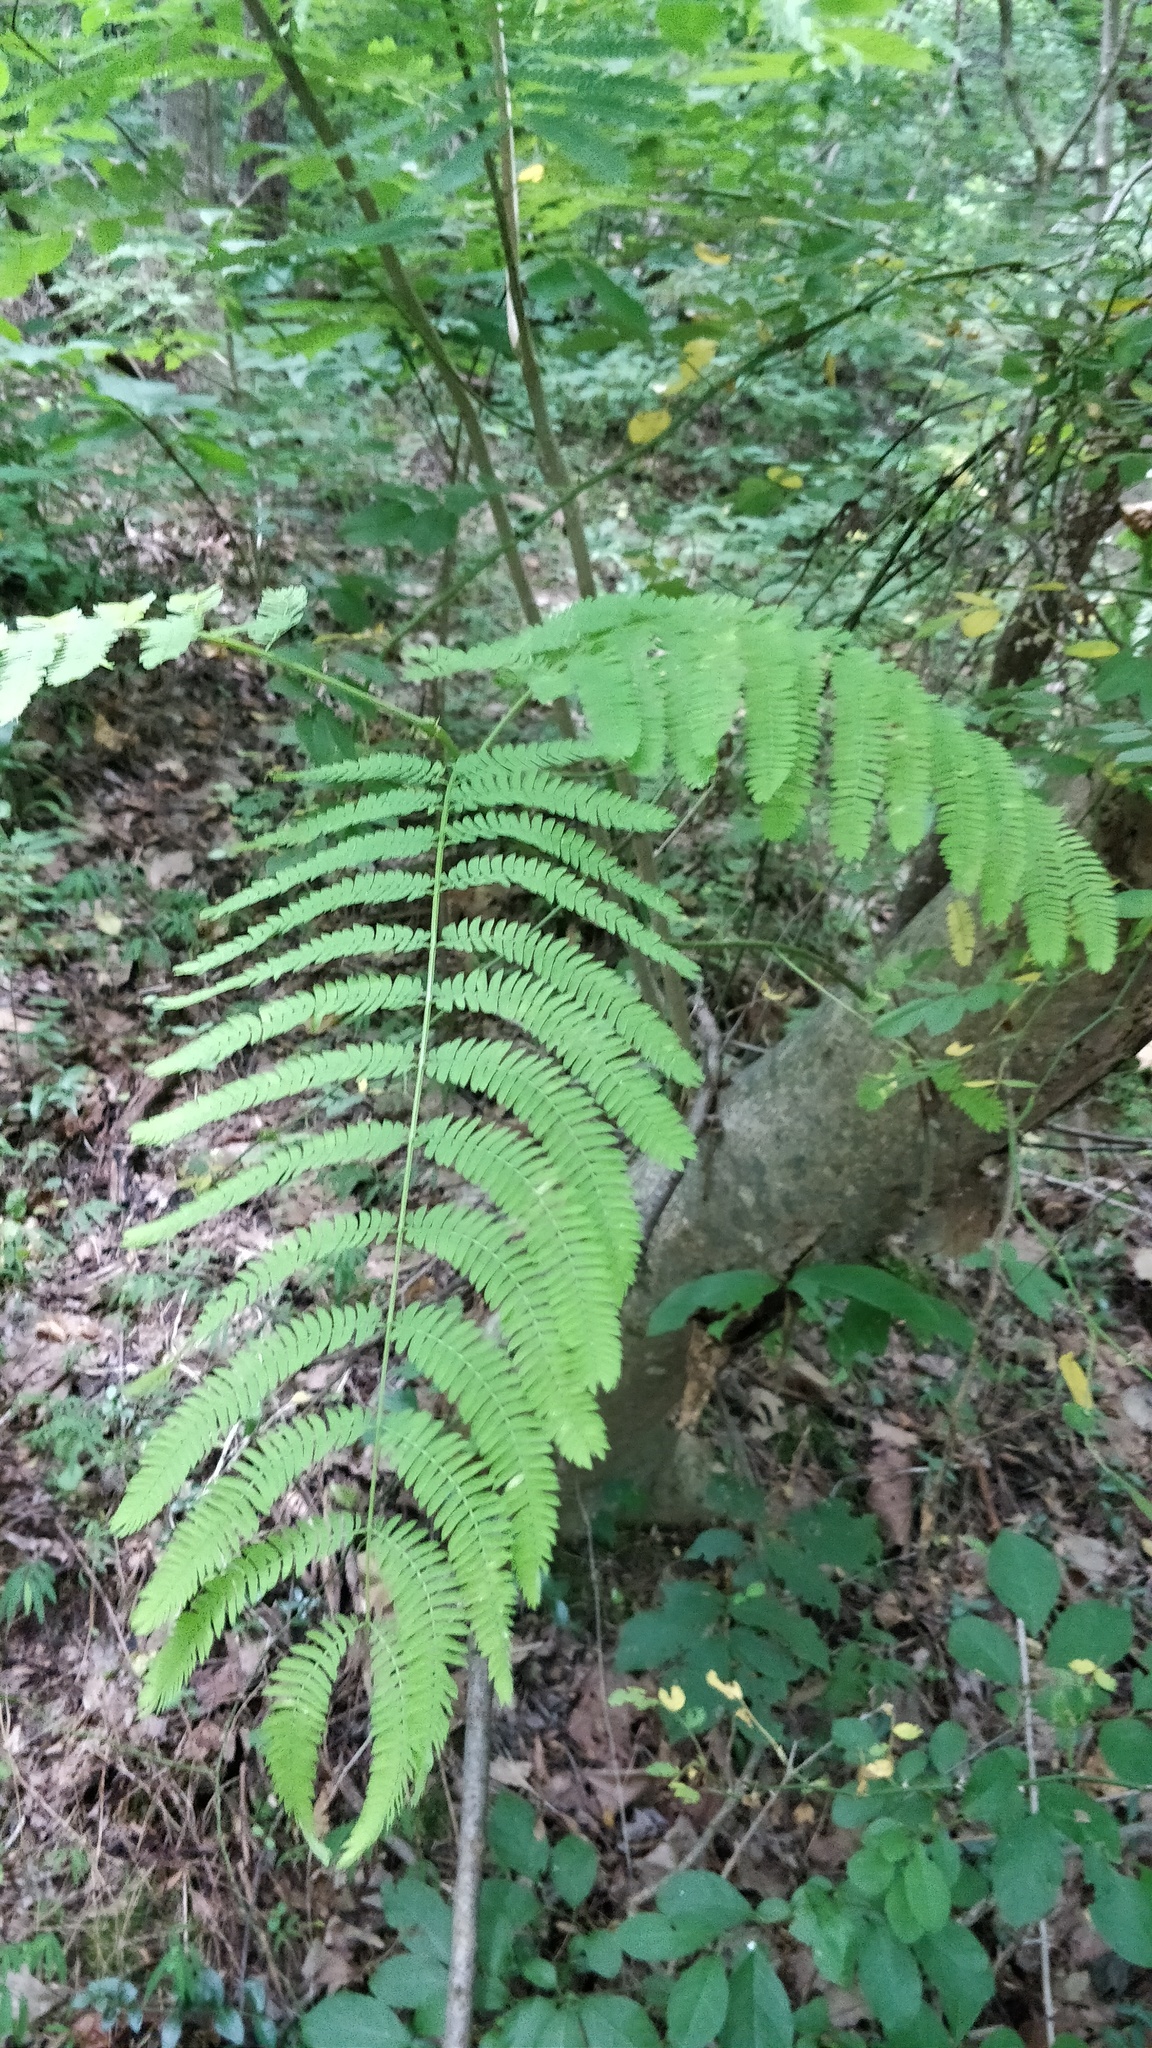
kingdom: Plantae
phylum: Tracheophyta
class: Magnoliopsida
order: Fabales
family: Fabaceae
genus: Albizia
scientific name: Albizia julibrissin
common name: Silktree
